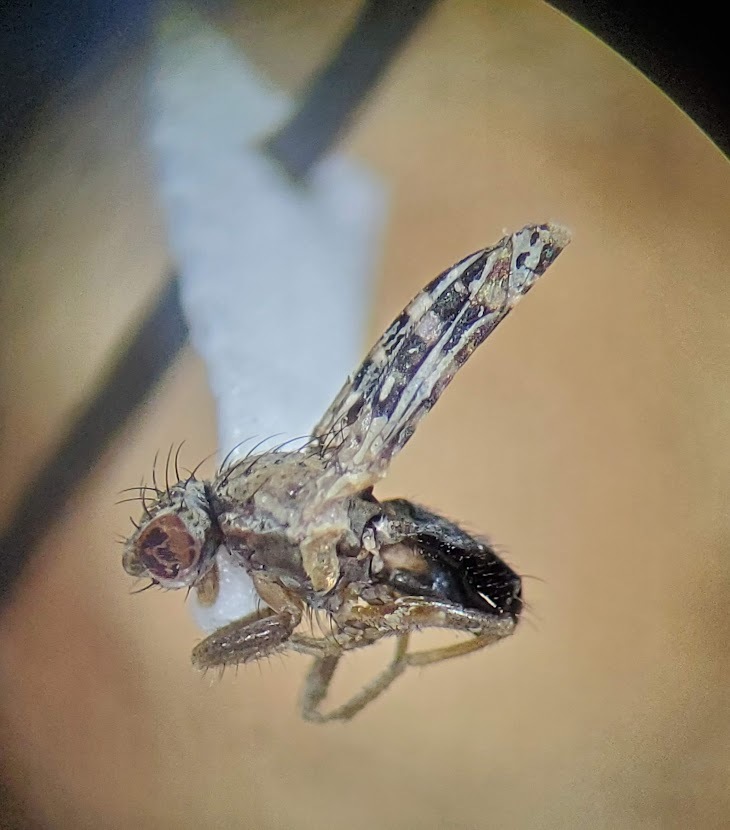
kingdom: Animalia
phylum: Arthropoda
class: Insecta
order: Diptera
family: Heleomyzidae
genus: Trixoscelis
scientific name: Trixoscelis polita
